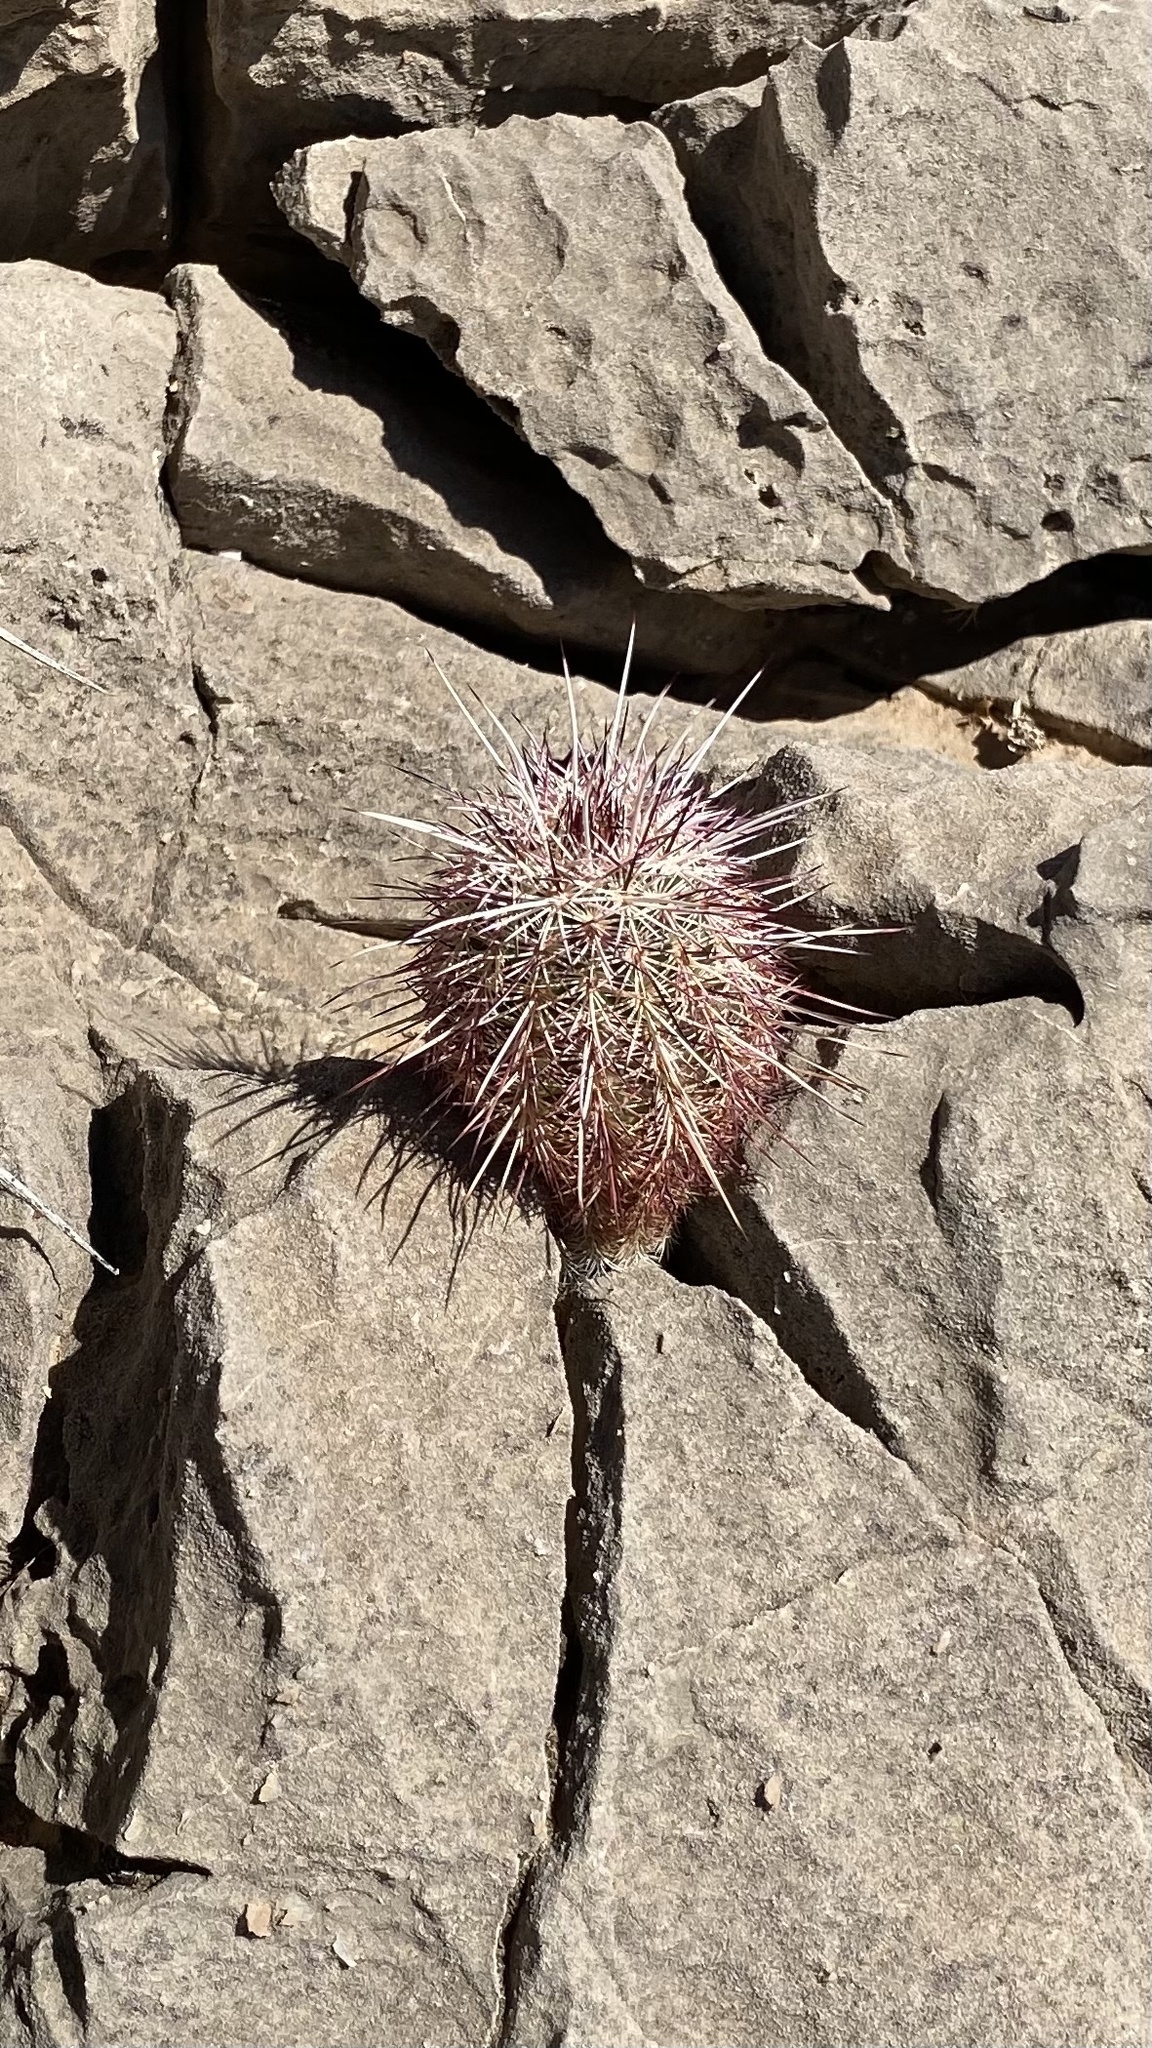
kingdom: Plantae
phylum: Tracheophyta
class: Magnoliopsida
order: Caryophyllales
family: Cactaceae
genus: Echinocereus
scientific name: Echinocereus viridiflorus
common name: Nylon hedgehog cactus
